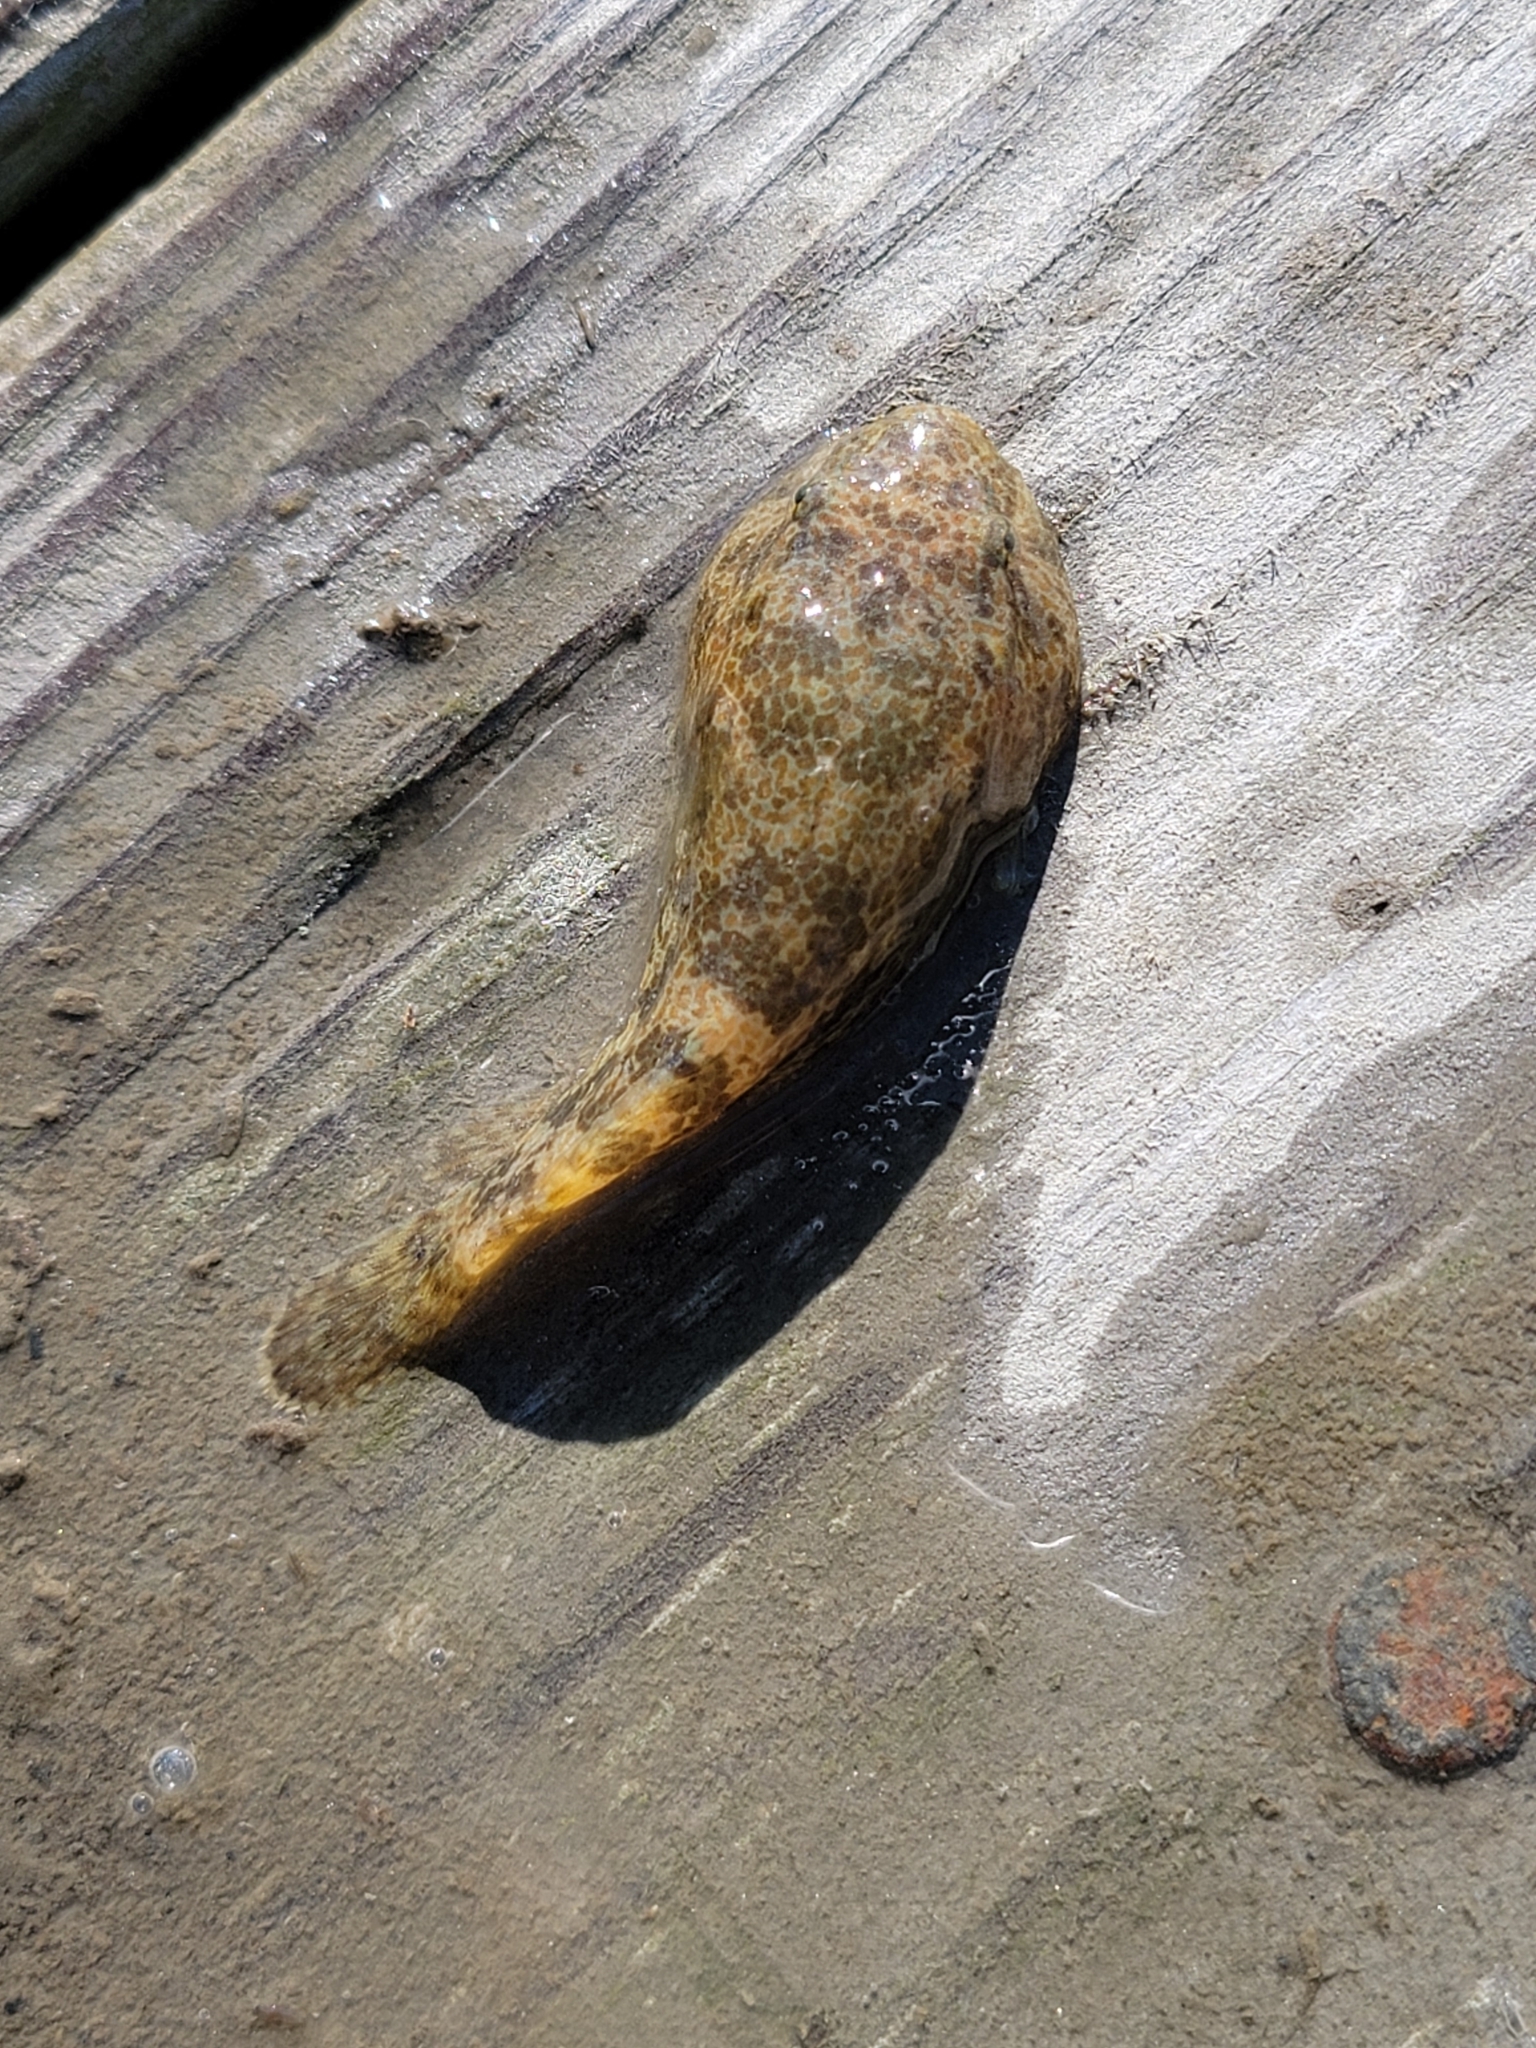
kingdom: Animalia
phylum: Chordata
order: Gobiesociformes
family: Gobiesocidae
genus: Gobiesox
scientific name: Gobiesox strumosus
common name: Skilletfish
